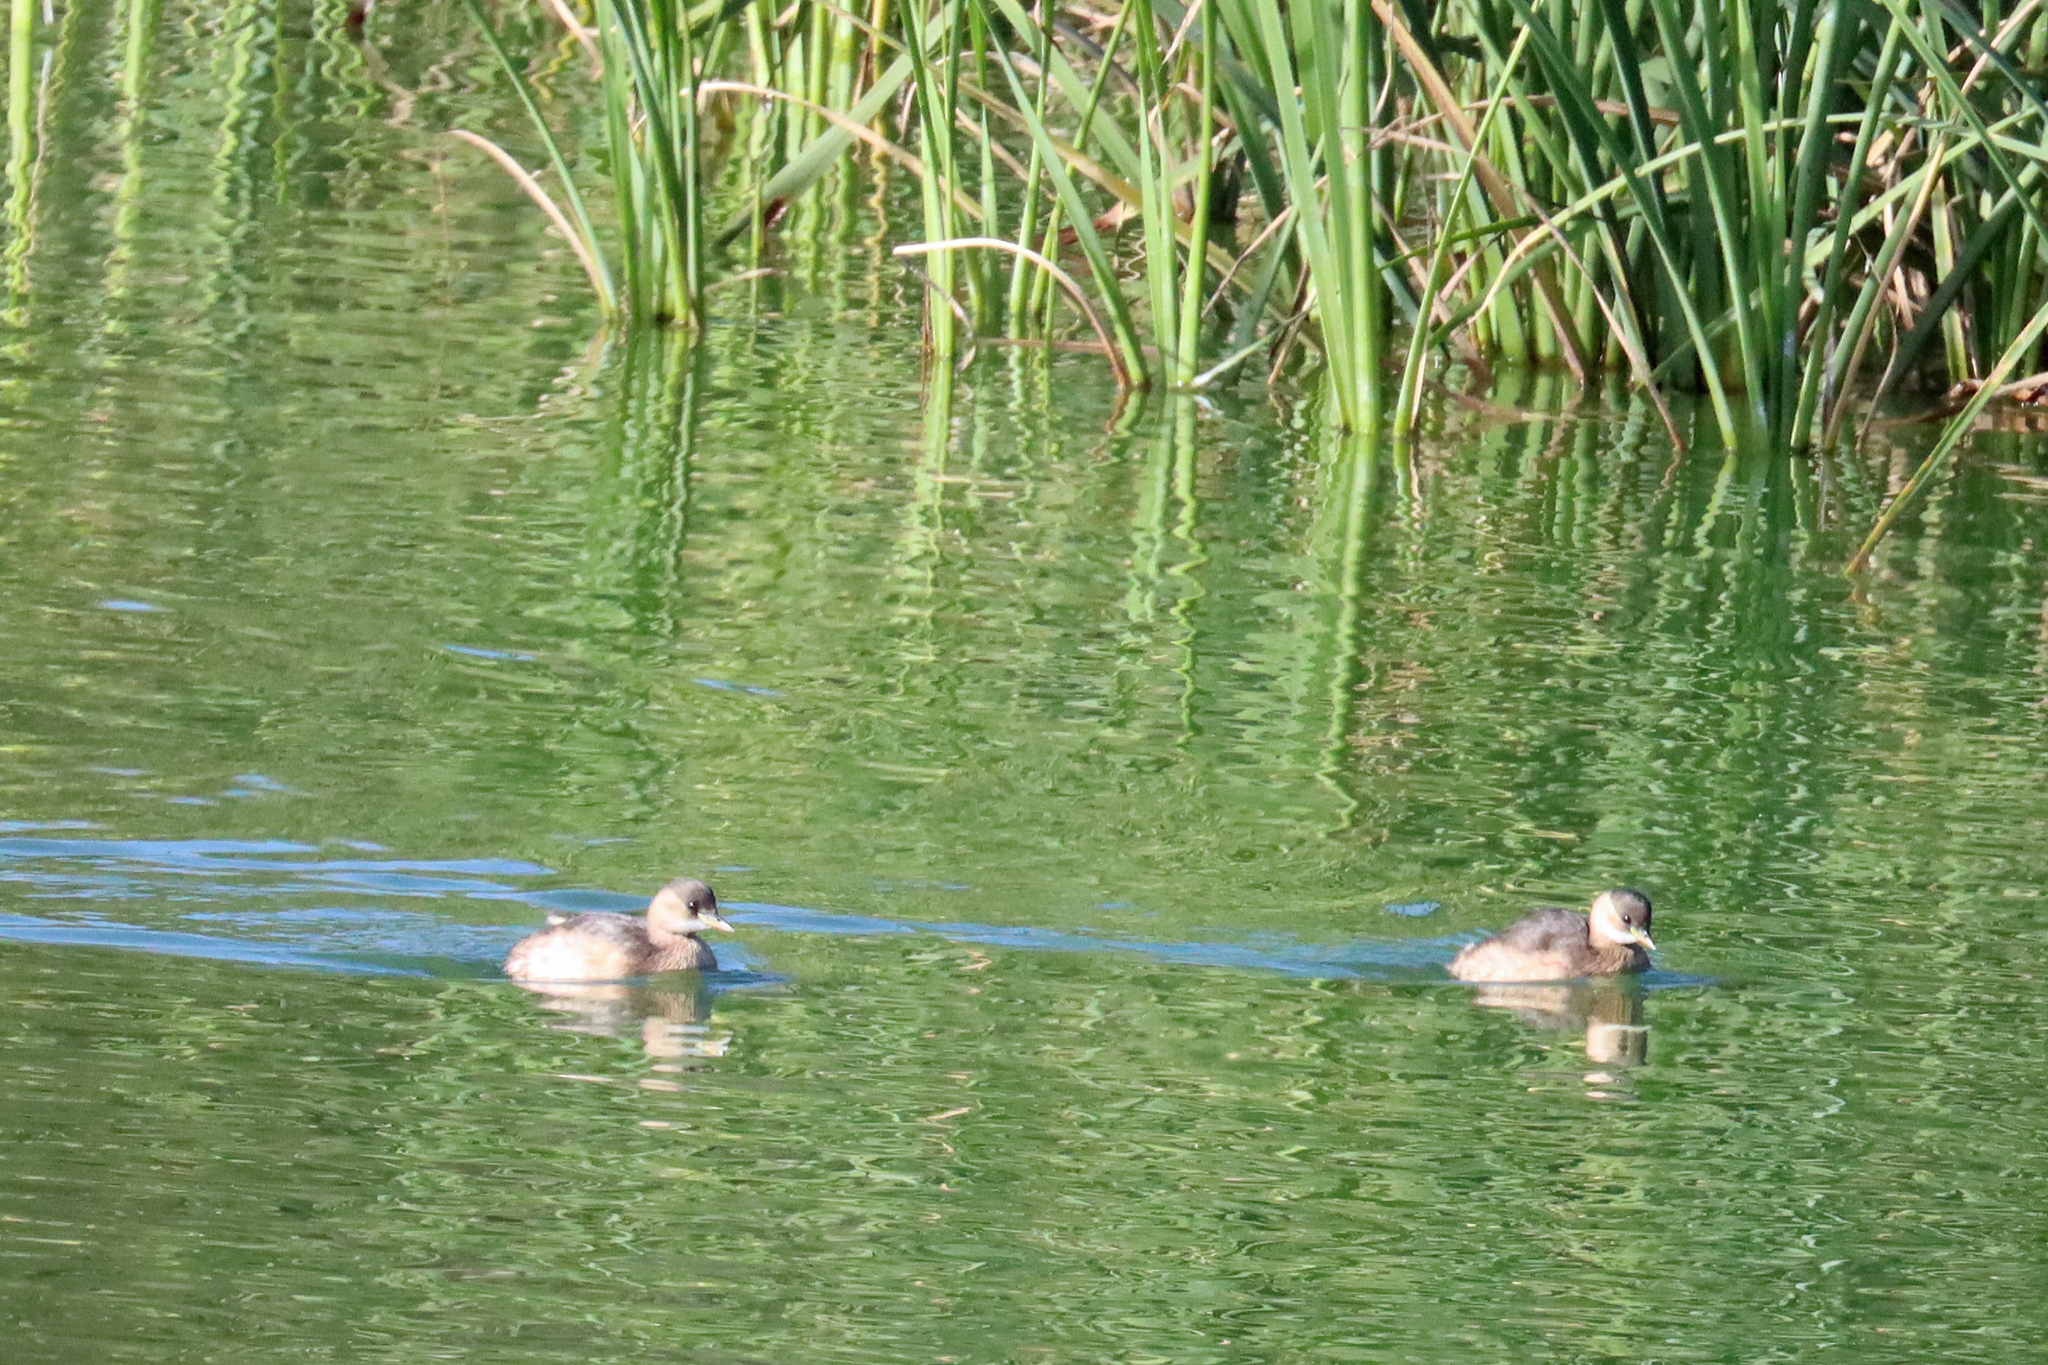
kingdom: Animalia
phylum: Chordata
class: Aves
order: Podicipediformes
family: Podicipedidae
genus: Tachybaptus
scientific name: Tachybaptus ruficollis
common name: Little grebe
